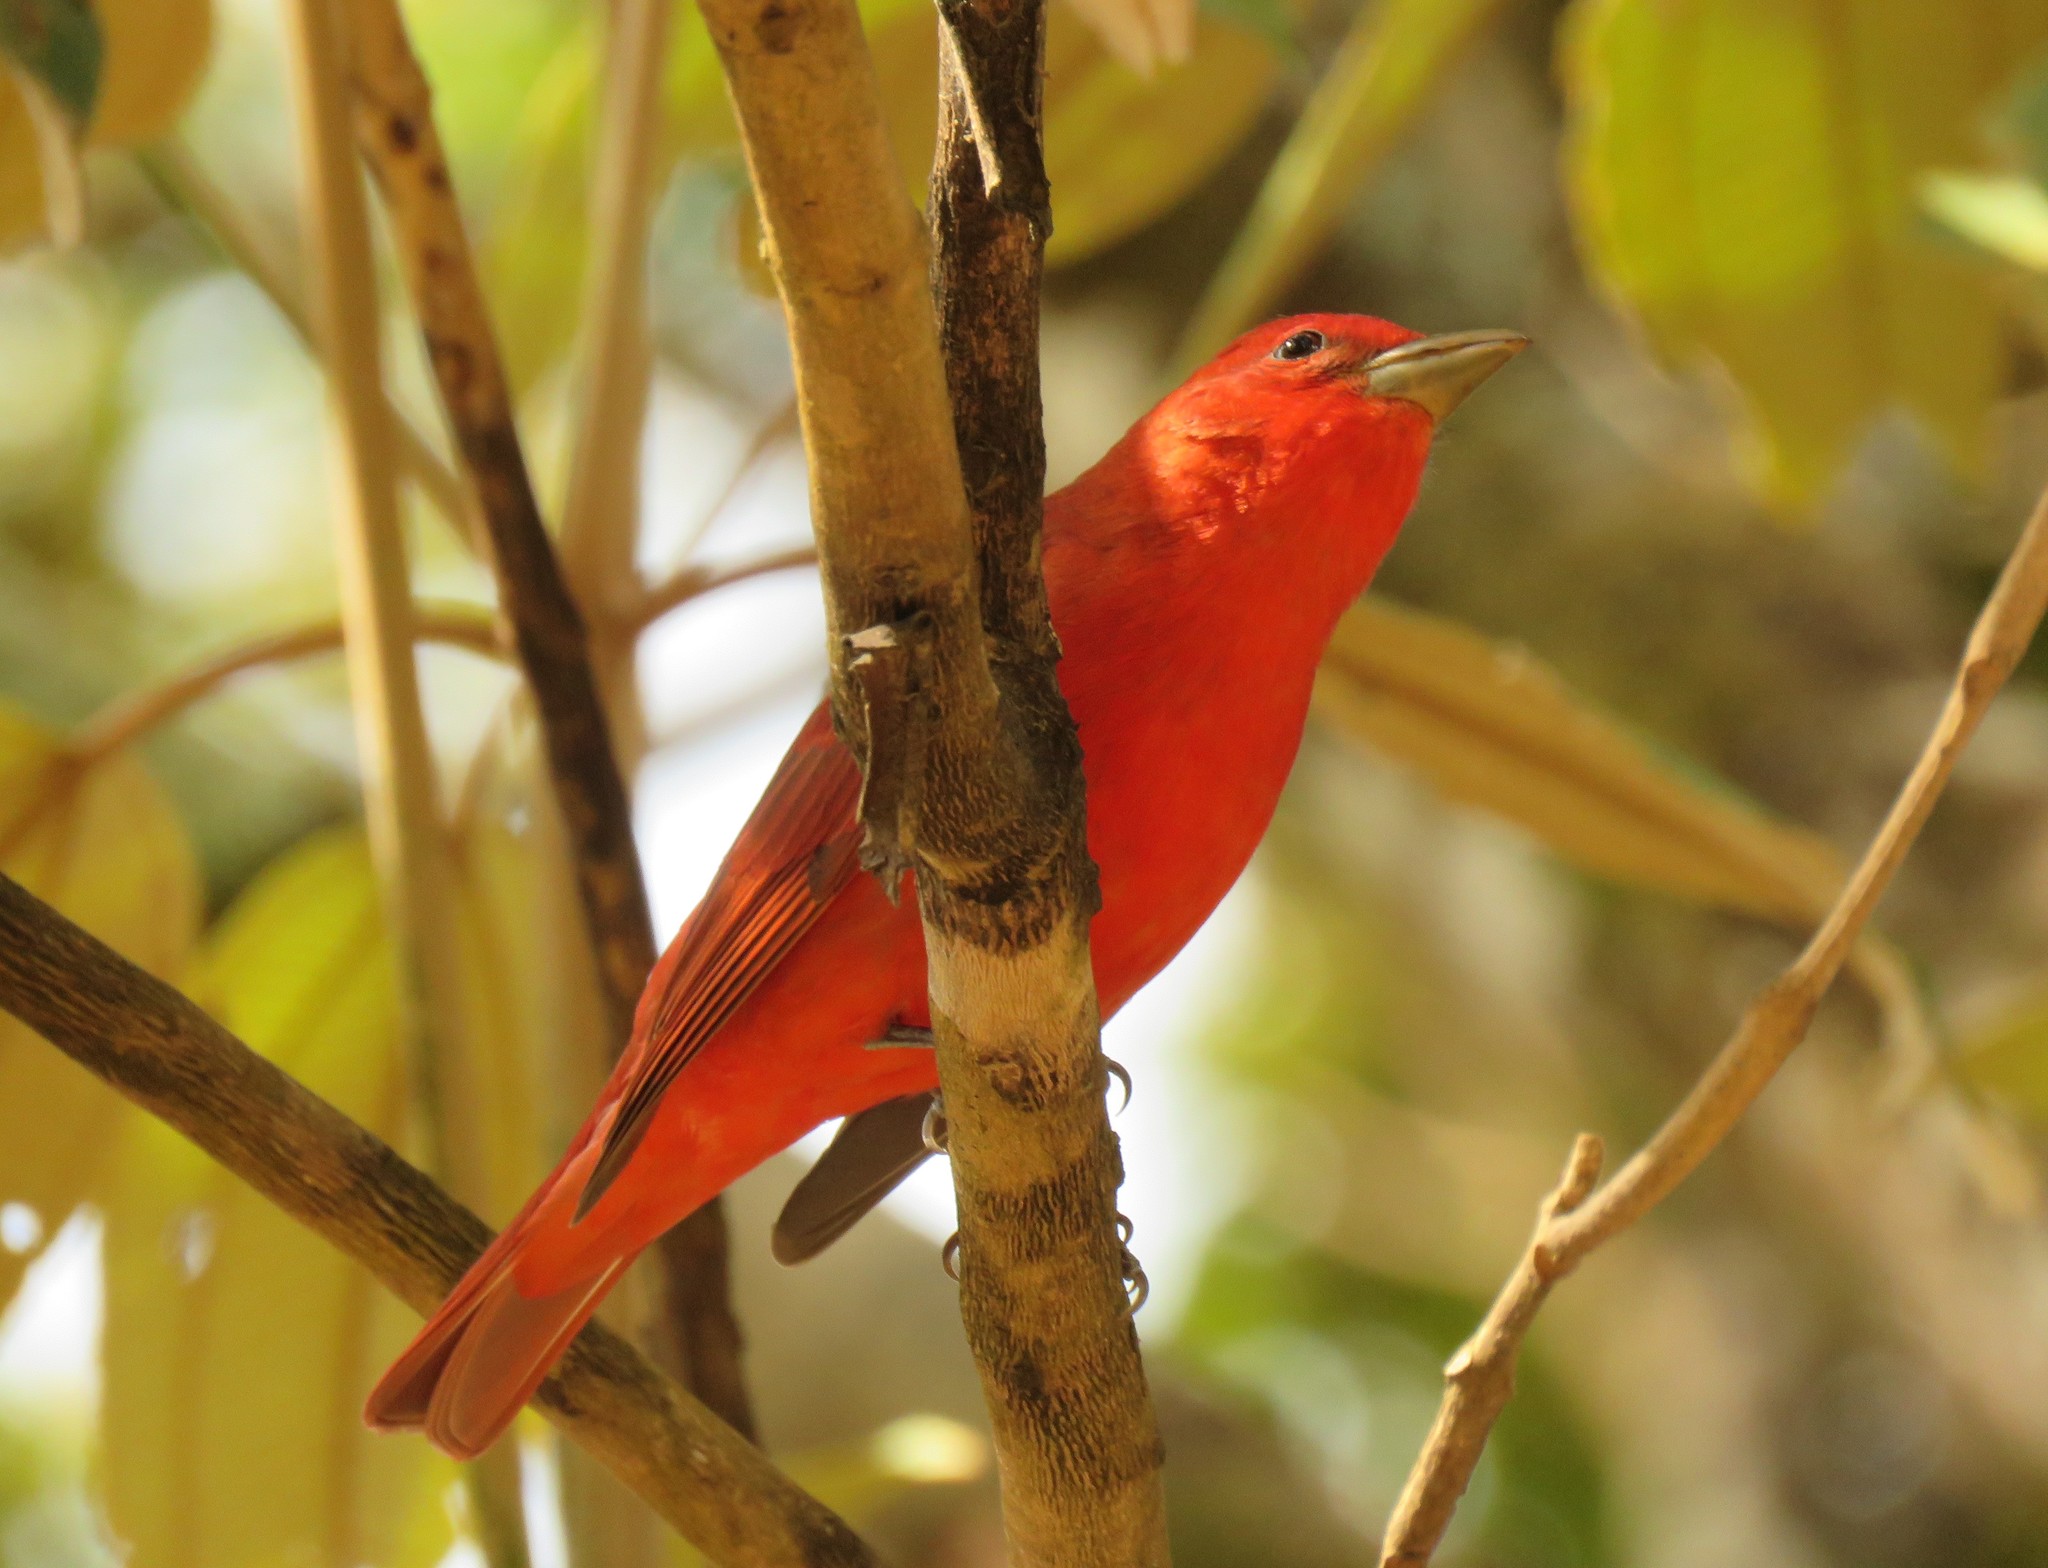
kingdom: Animalia
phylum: Chordata
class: Aves
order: Passeriformes
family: Cardinalidae
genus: Piranga
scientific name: Piranga rubra
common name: Summer tanager
